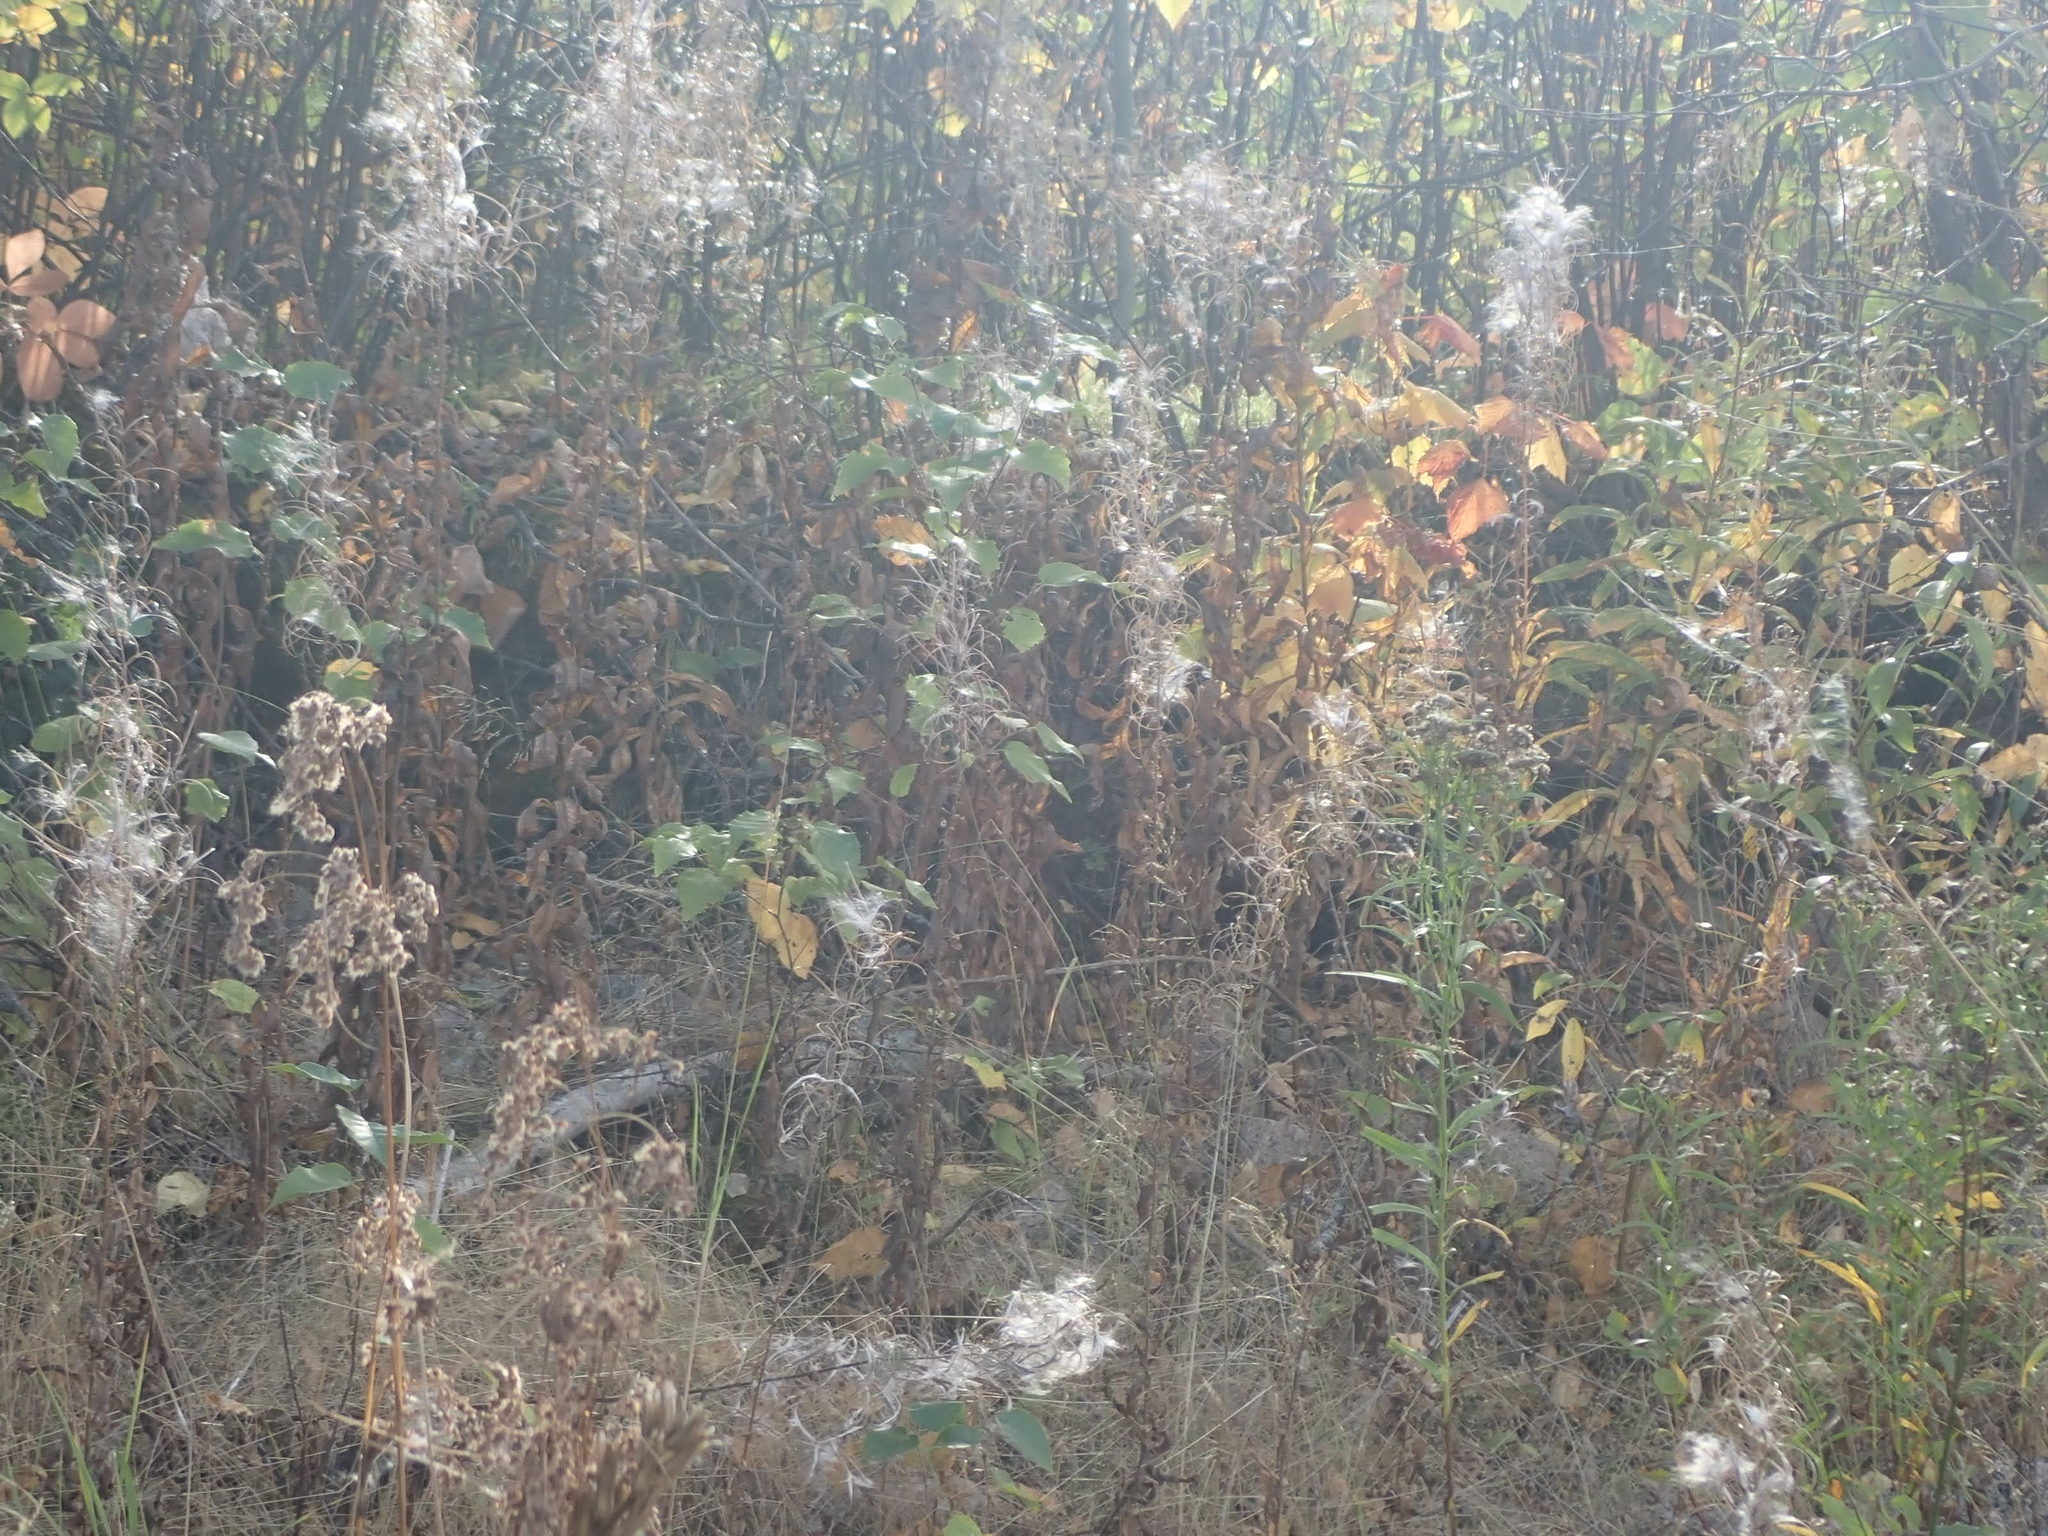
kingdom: Plantae
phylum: Tracheophyta
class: Magnoliopsida
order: Myrtales
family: Onagraceae
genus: Chamaenerion
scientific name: Chamaenerion angustifolium
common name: Fireweed
